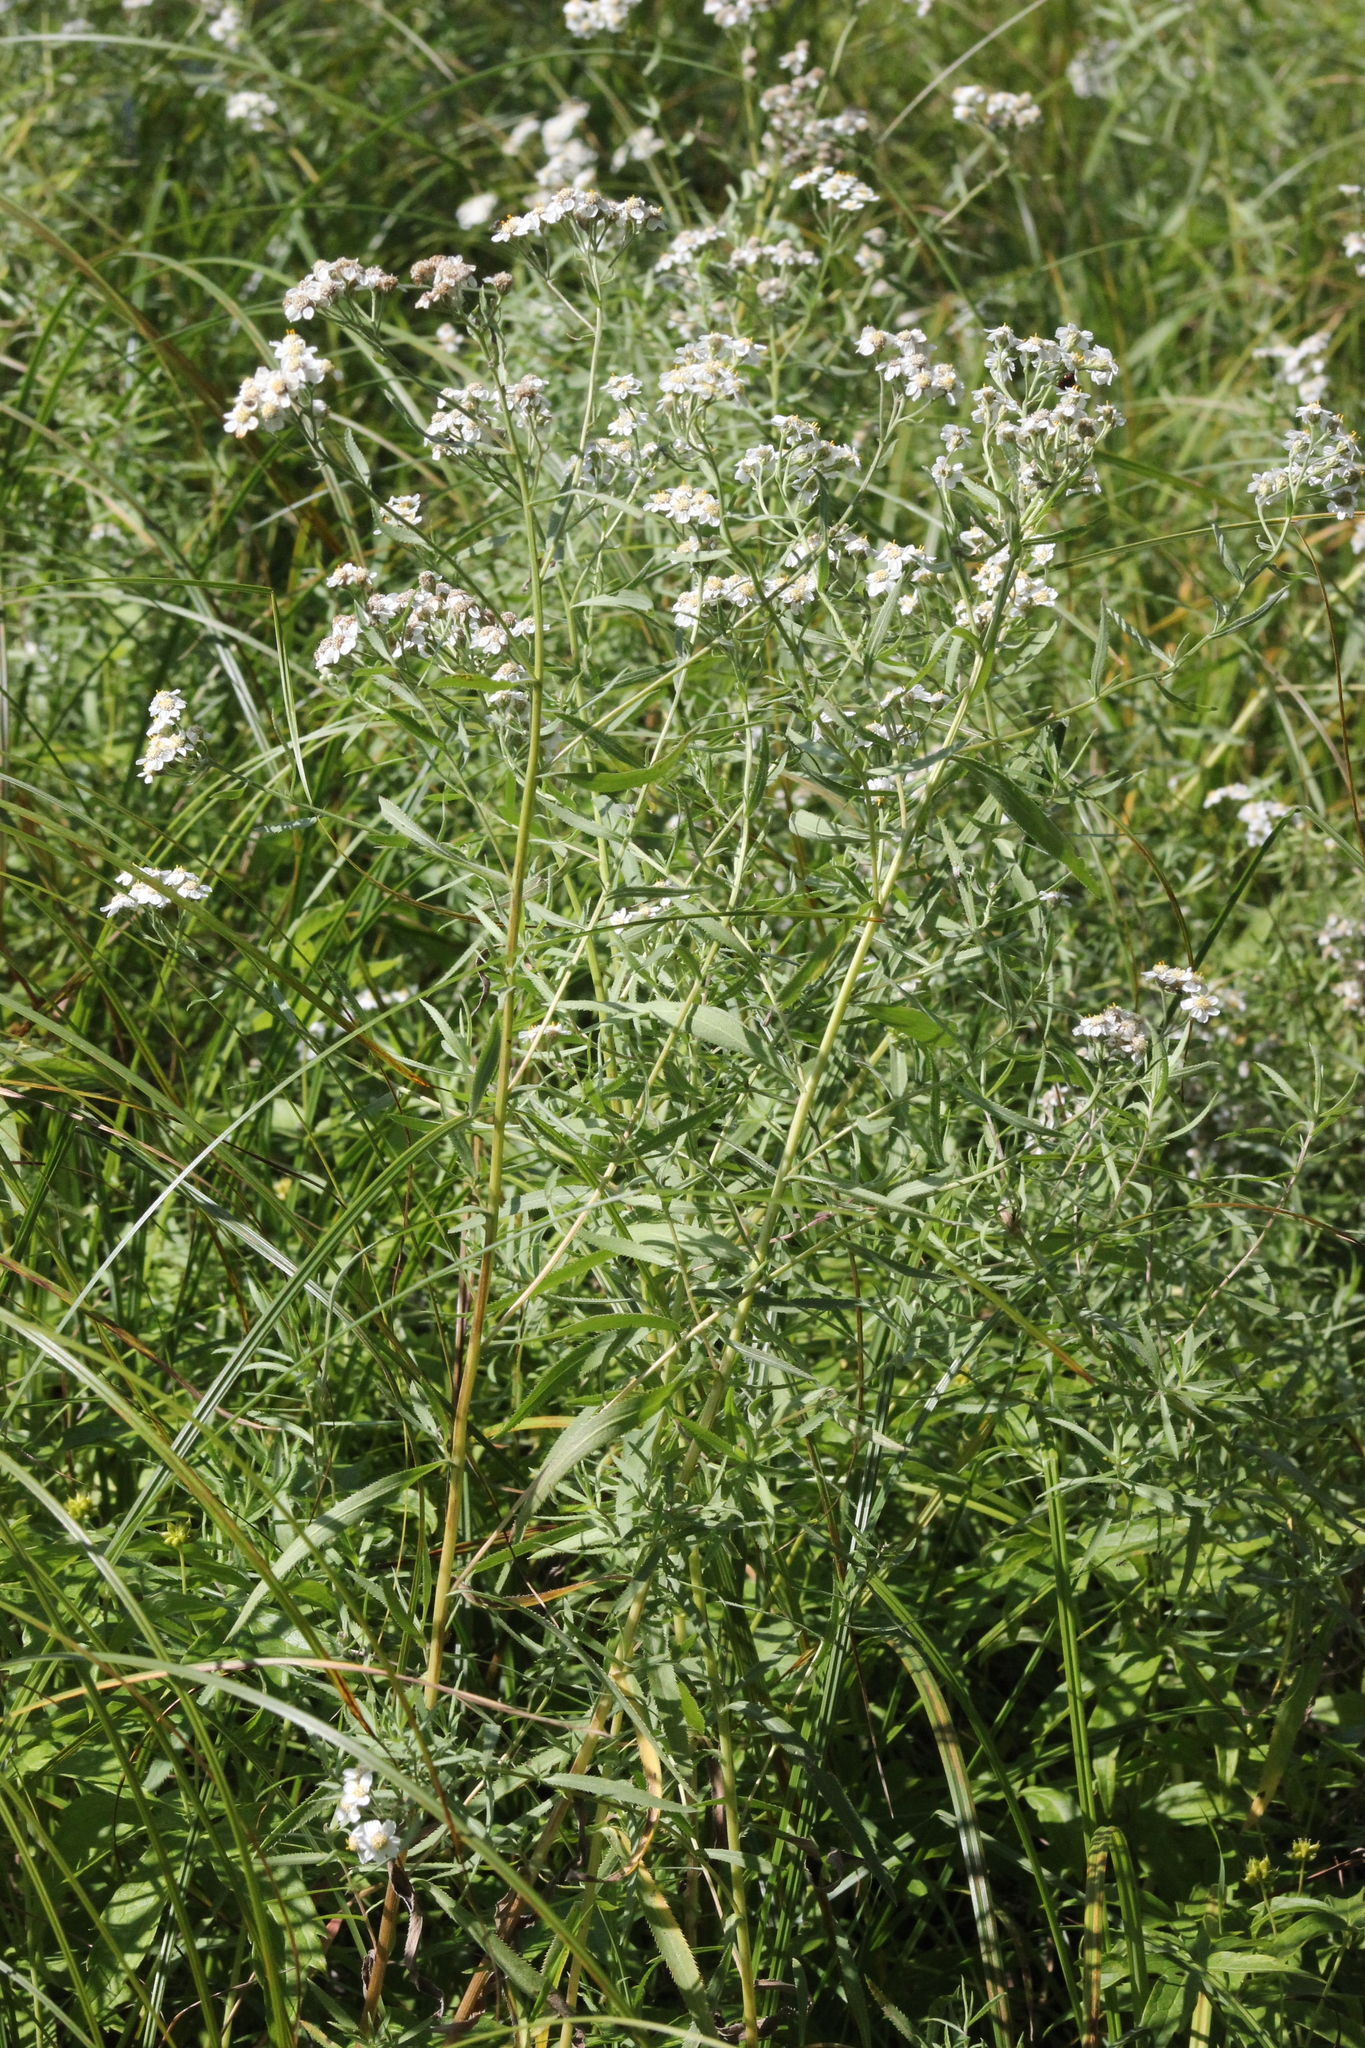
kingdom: Plantae
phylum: Tracheophyta
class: Magnoliopsida
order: Asterales
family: Asteraceae
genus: Achillea
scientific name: Achillea salicifolia
